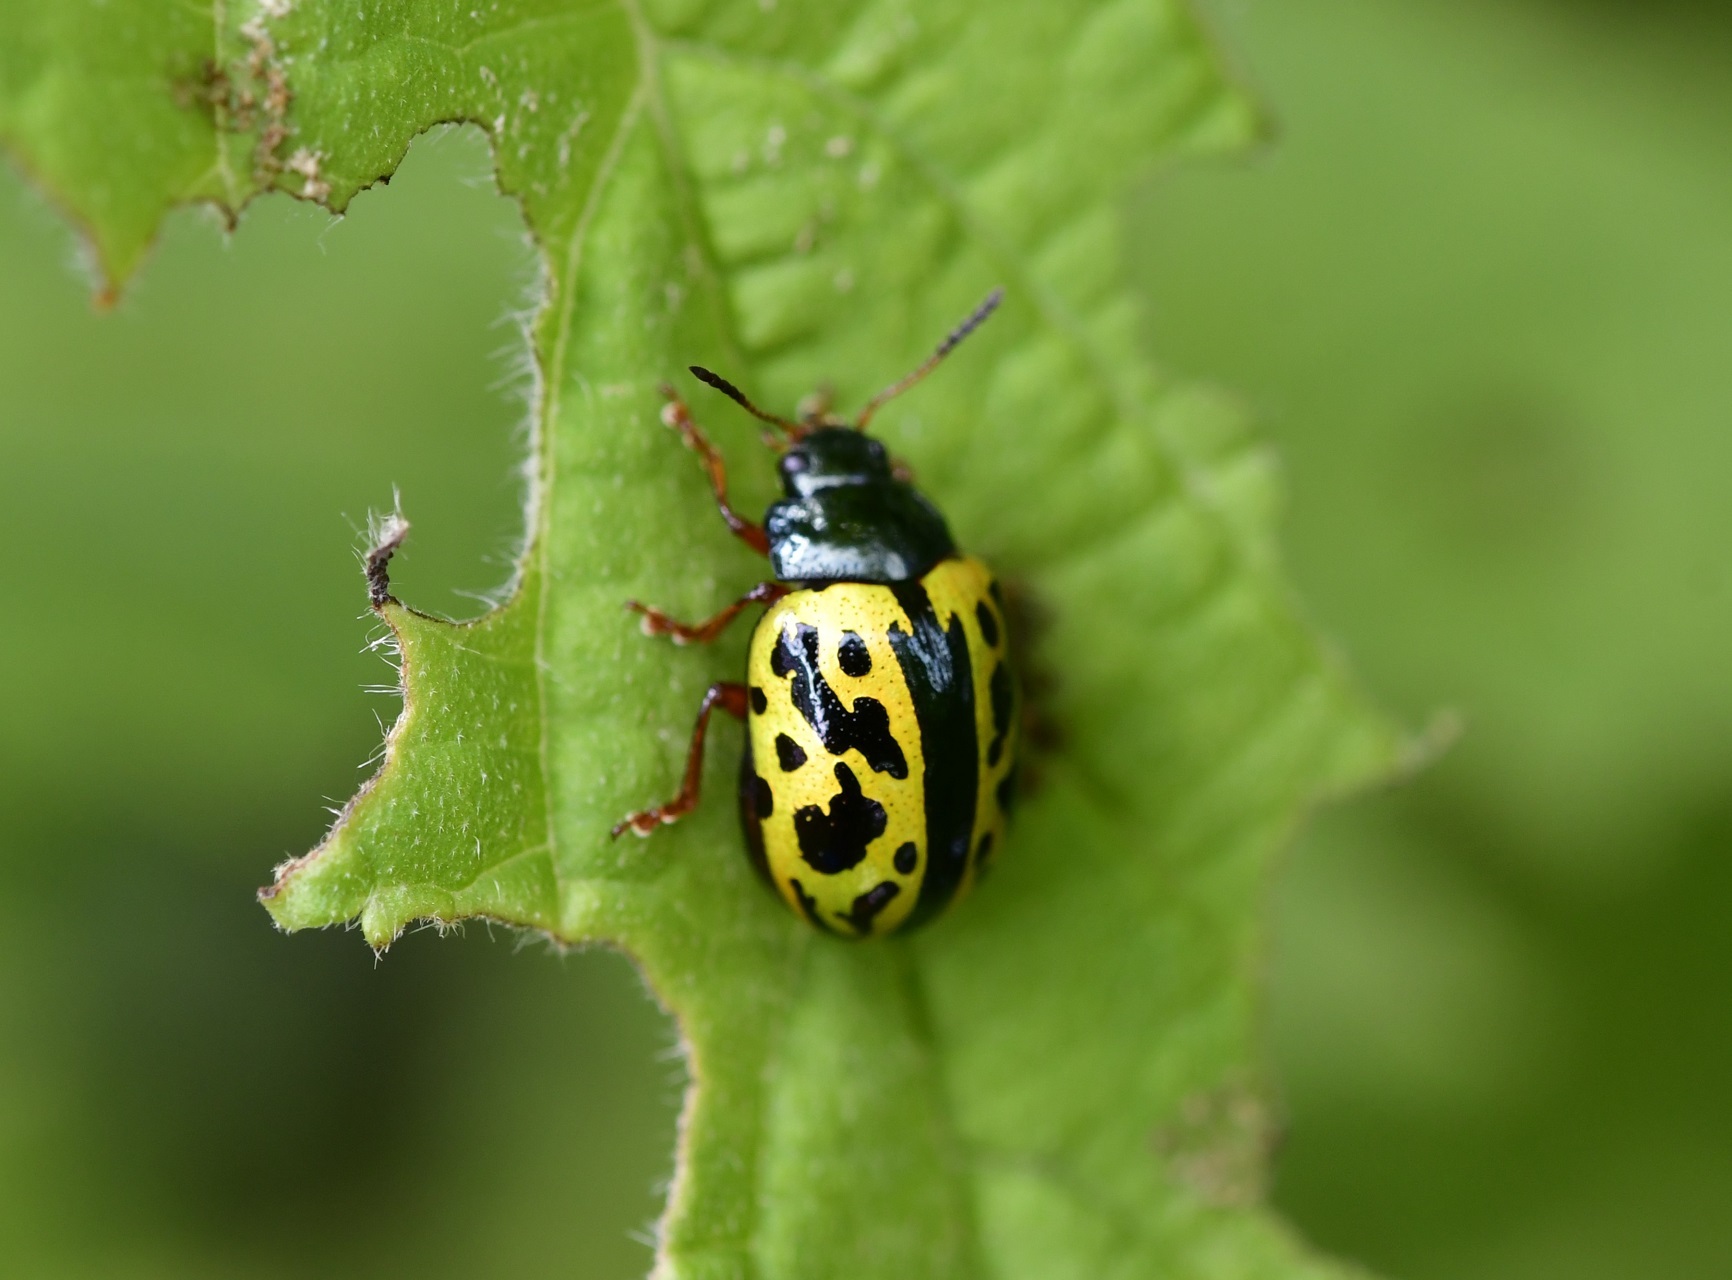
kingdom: Animalia
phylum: Arthropoda
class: Insecta
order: Coleoptera
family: Chrysomelidae
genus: Calligrapha
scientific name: Calligrapha fulvipes
